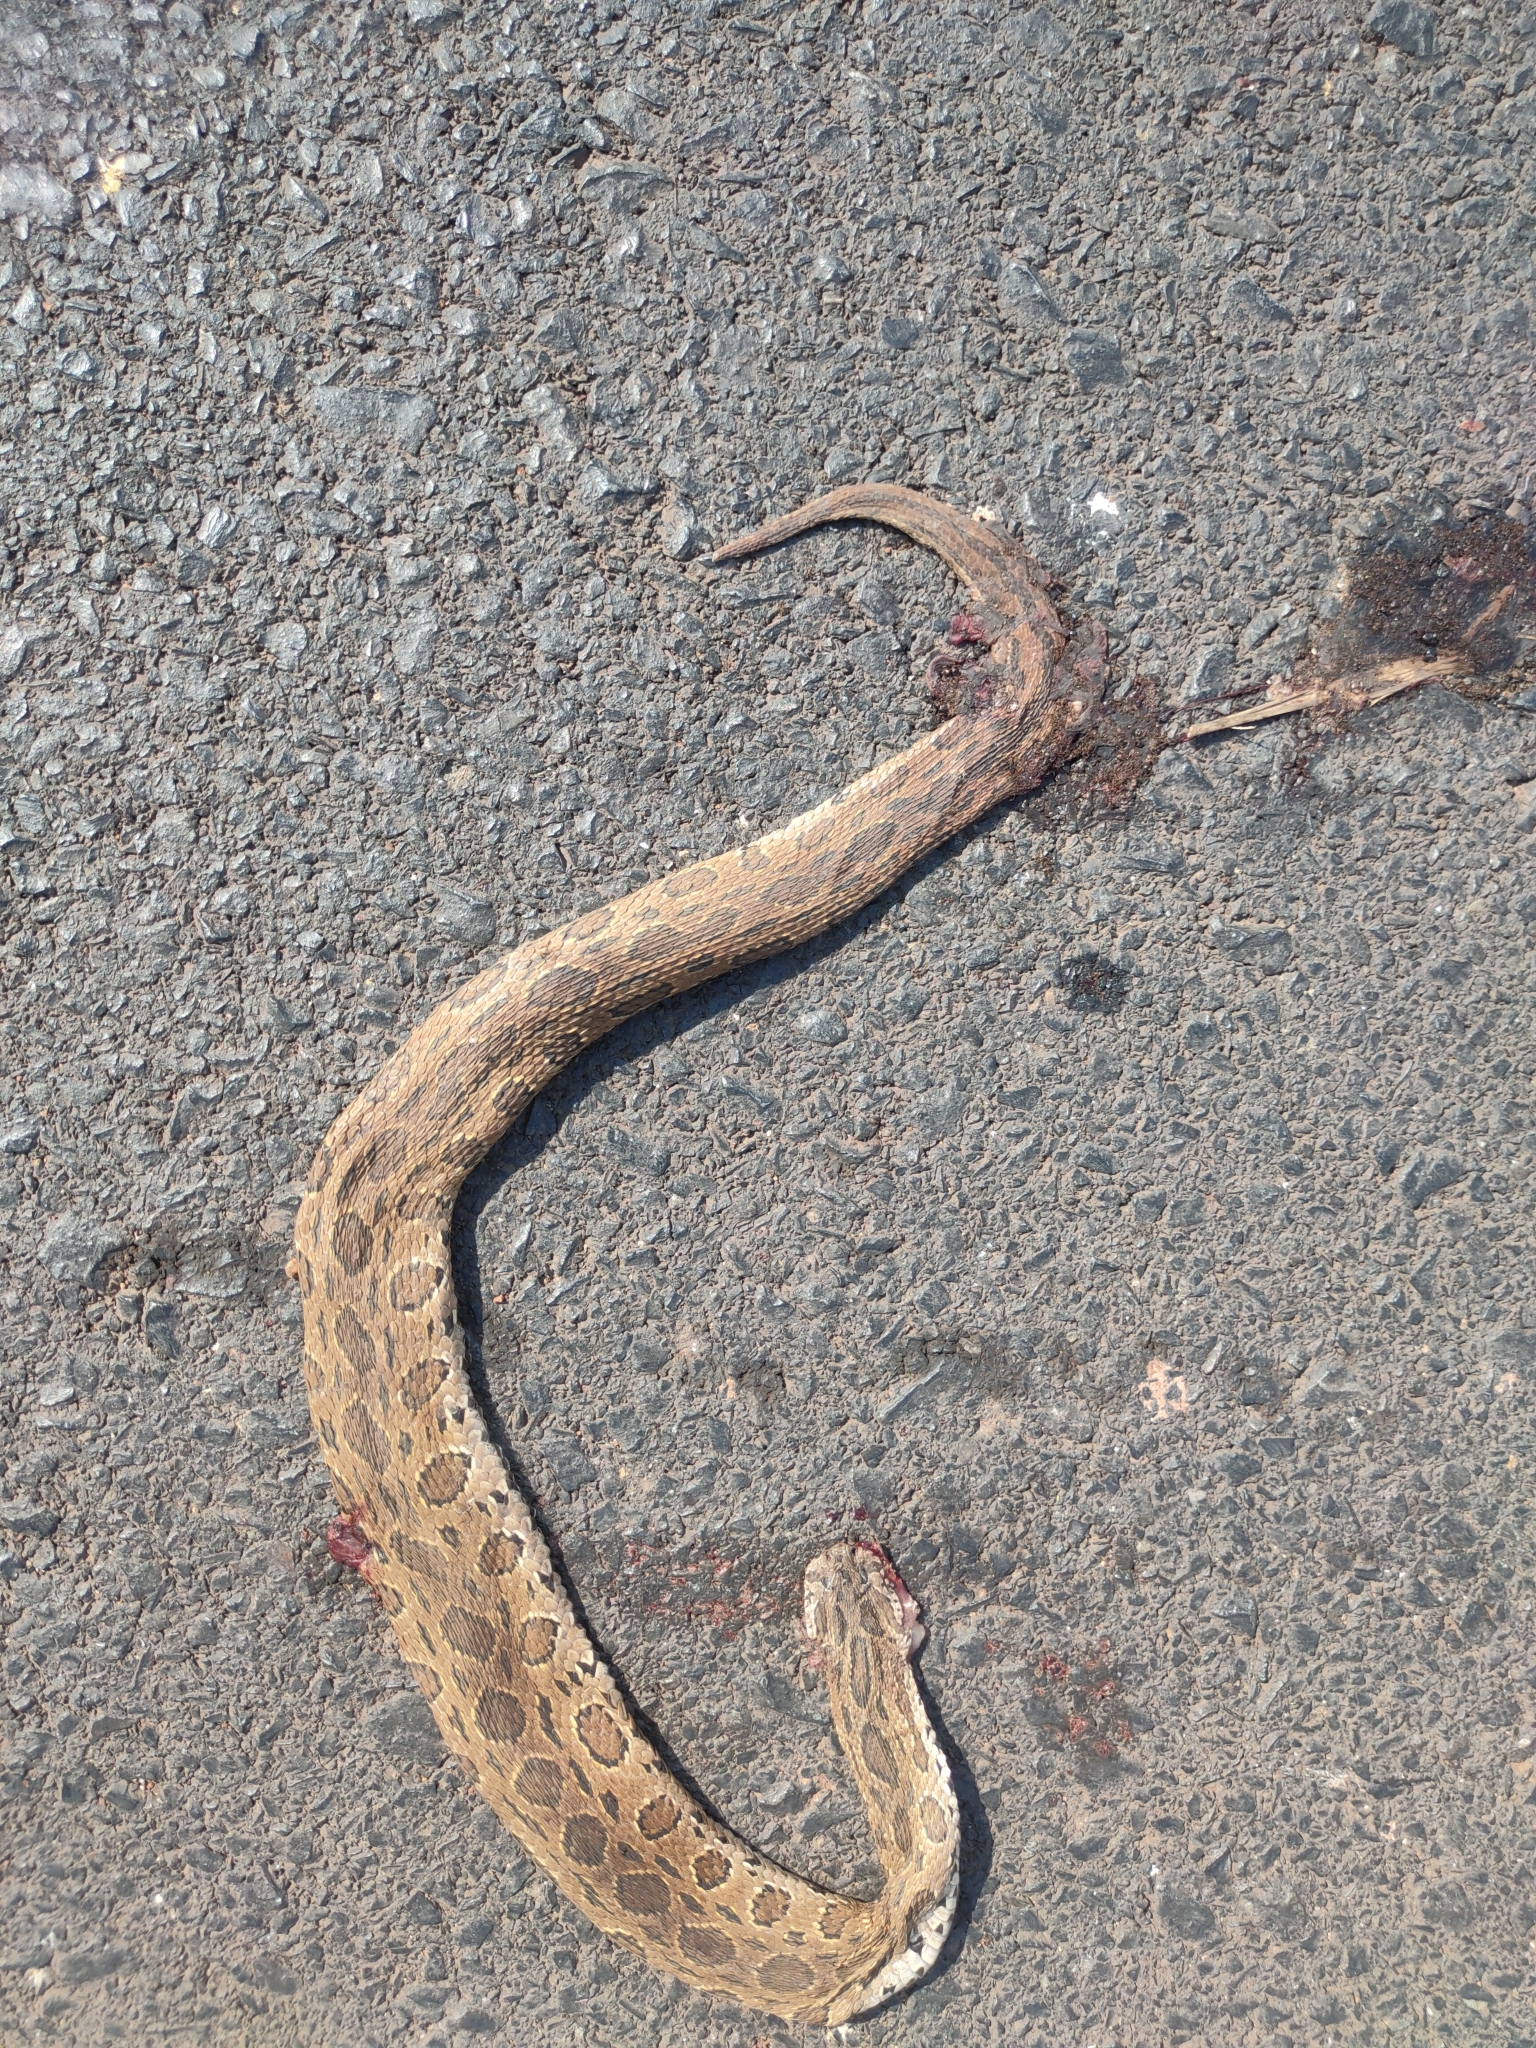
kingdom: Animalia
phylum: Chordata
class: Squamata
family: Viperidae
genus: Daboia
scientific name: Daboia siamensis
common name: Eastern russell's viper
